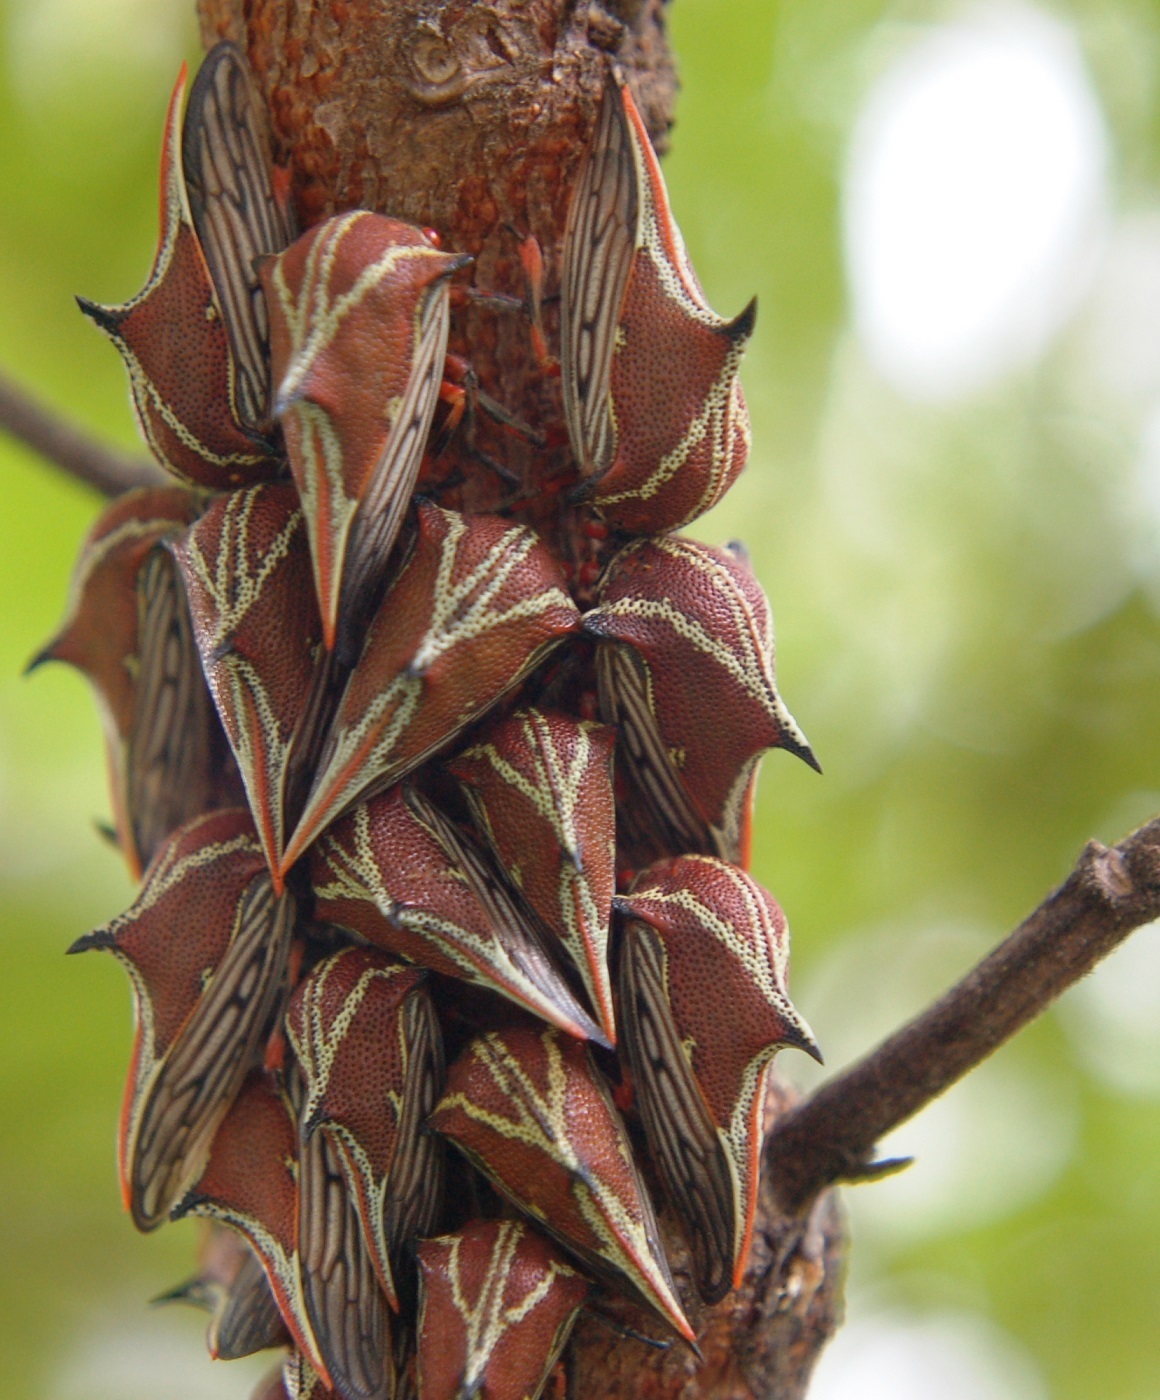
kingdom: Animalia
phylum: Arthropoda
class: Insecta
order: Hemiptera
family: Membracidae
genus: Umbonia
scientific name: Umbonia reclinata
